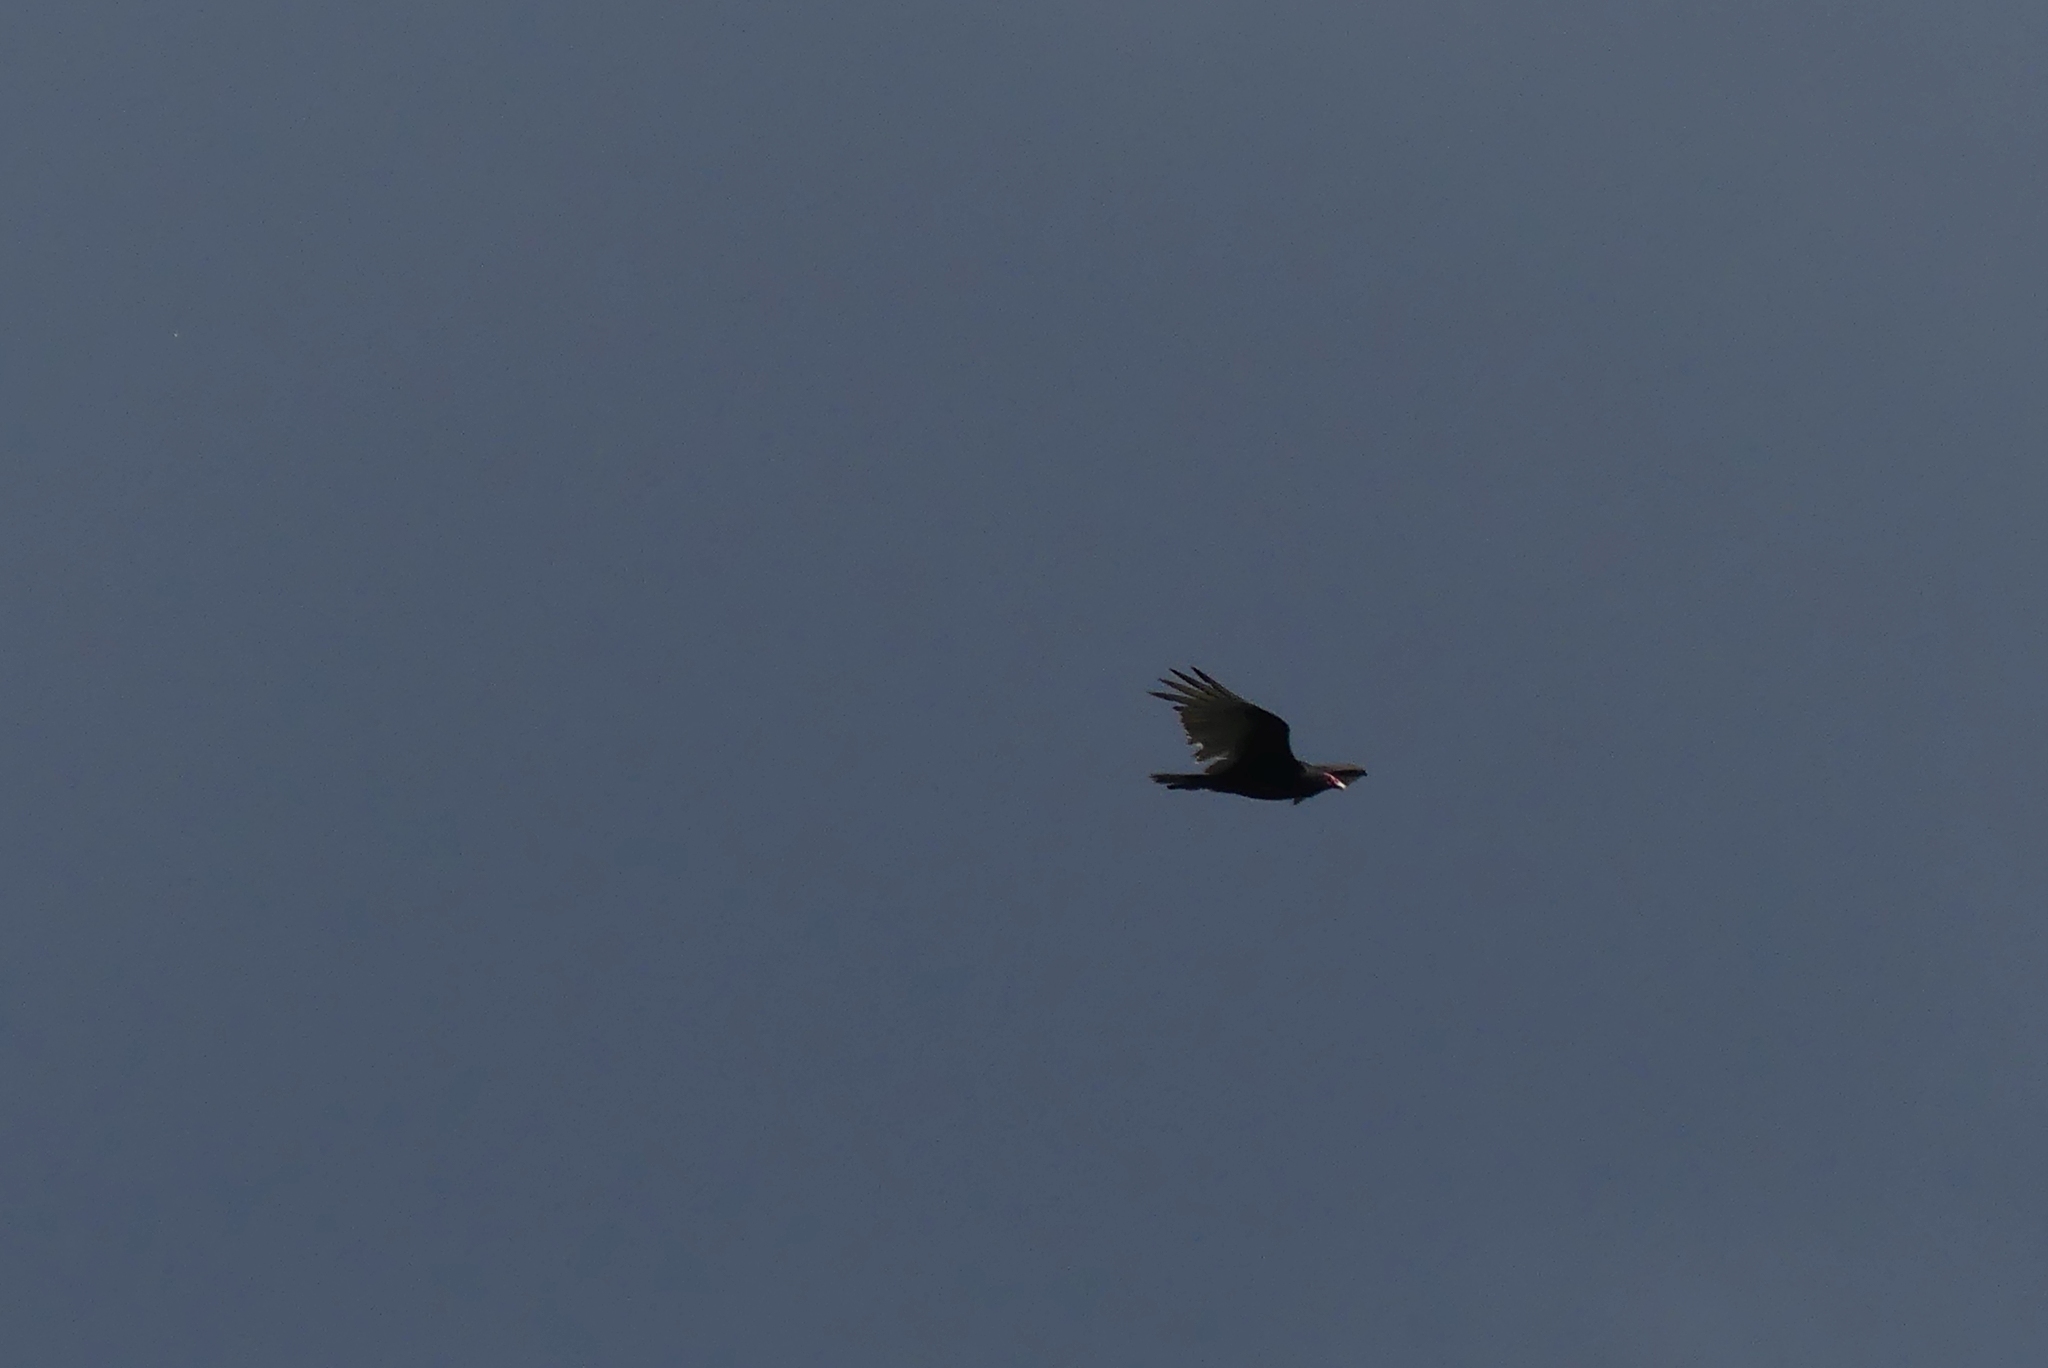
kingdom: Animalia
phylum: Chordata
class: Aves
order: Accipitriformes
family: Cathartidae
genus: Cathartes
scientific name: Cathartes aura
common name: Turkey vulture
